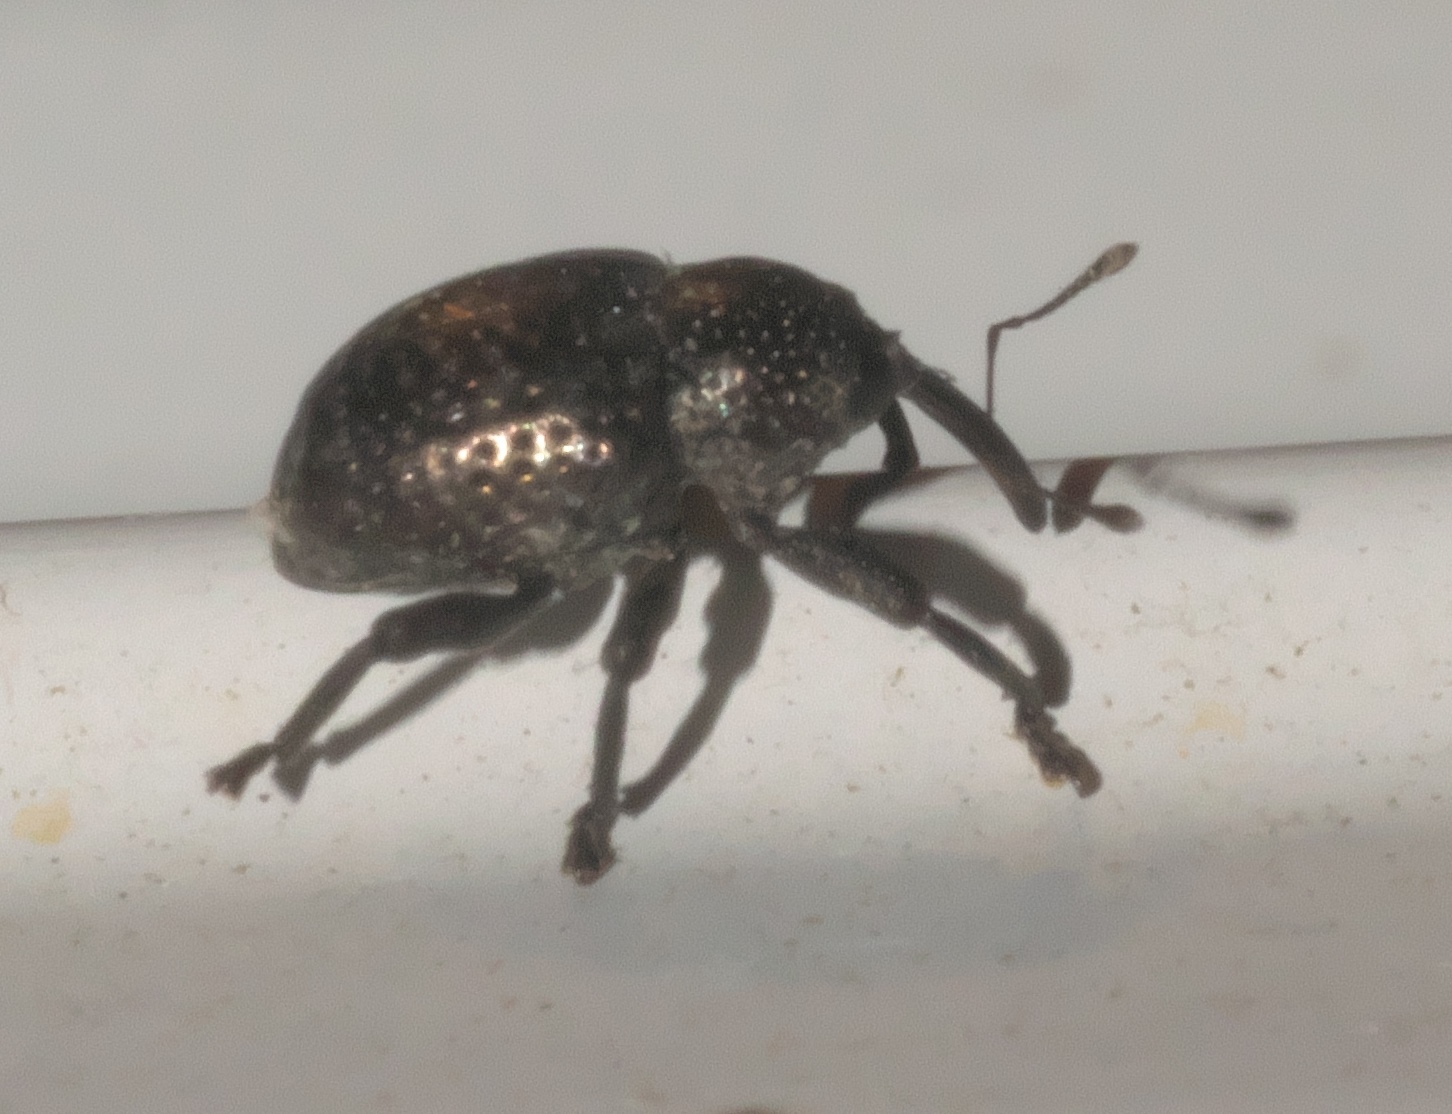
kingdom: Animalia
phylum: Arthropoda
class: Insecta
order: Coleoptera
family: Curculionidae
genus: Chalcodermus
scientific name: Chalcodermus aeneus
